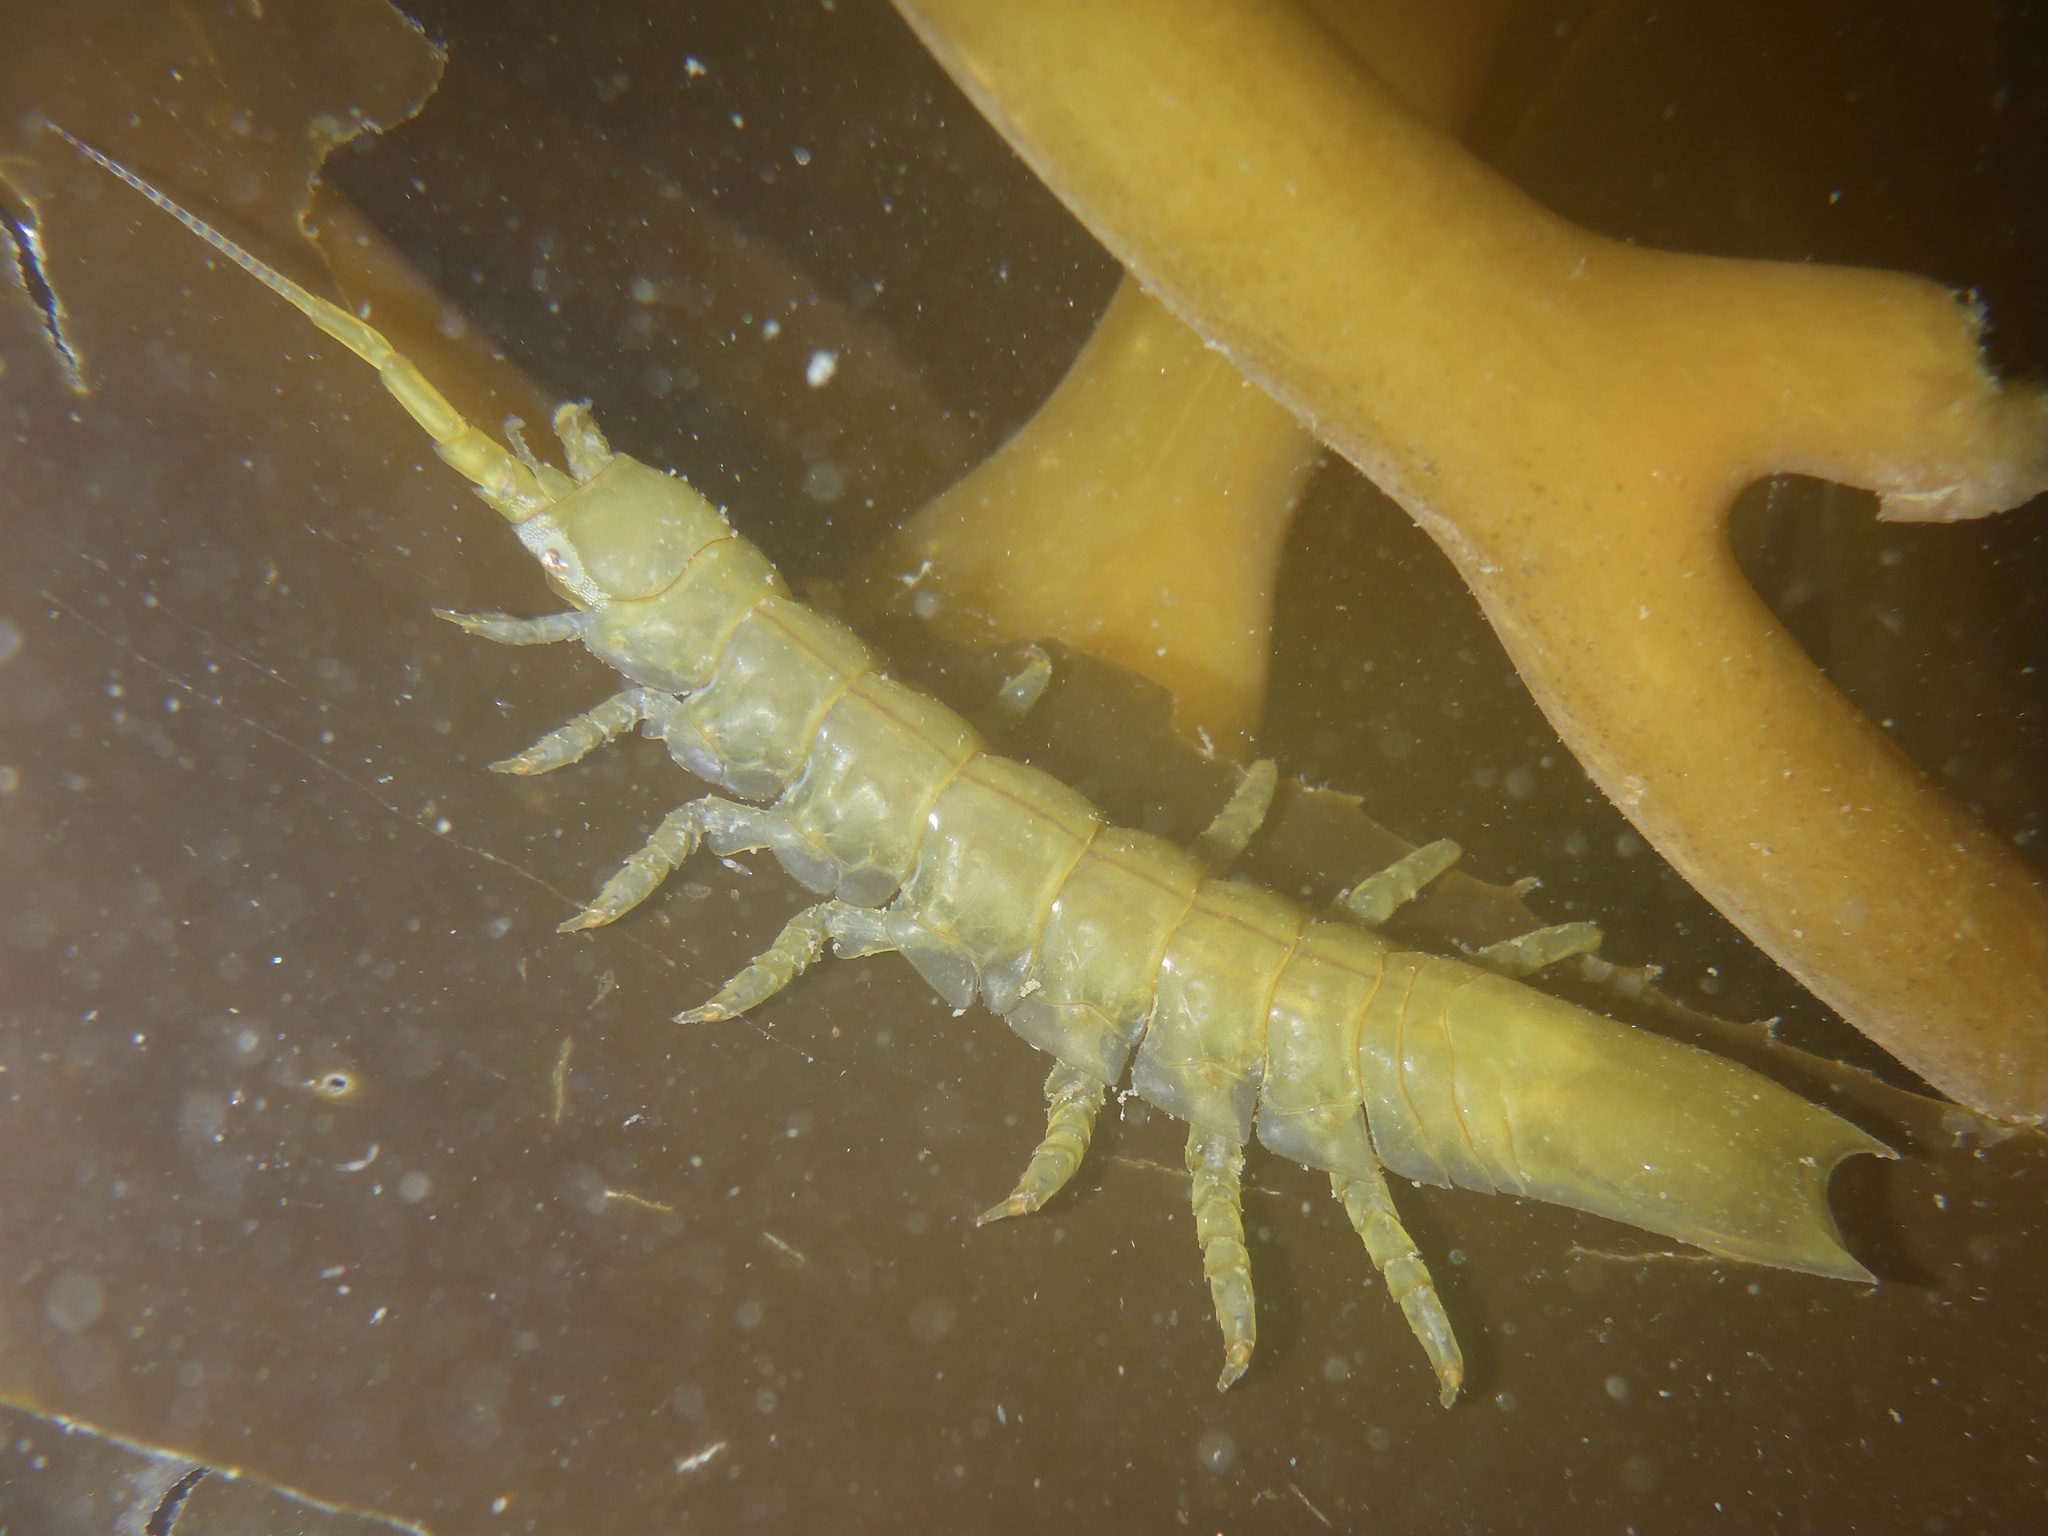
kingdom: Animalia
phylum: Arthropoda
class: Malacostraca
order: Isopoda
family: Idoteidae
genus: Pentidotea
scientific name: Pentidotea resecata
